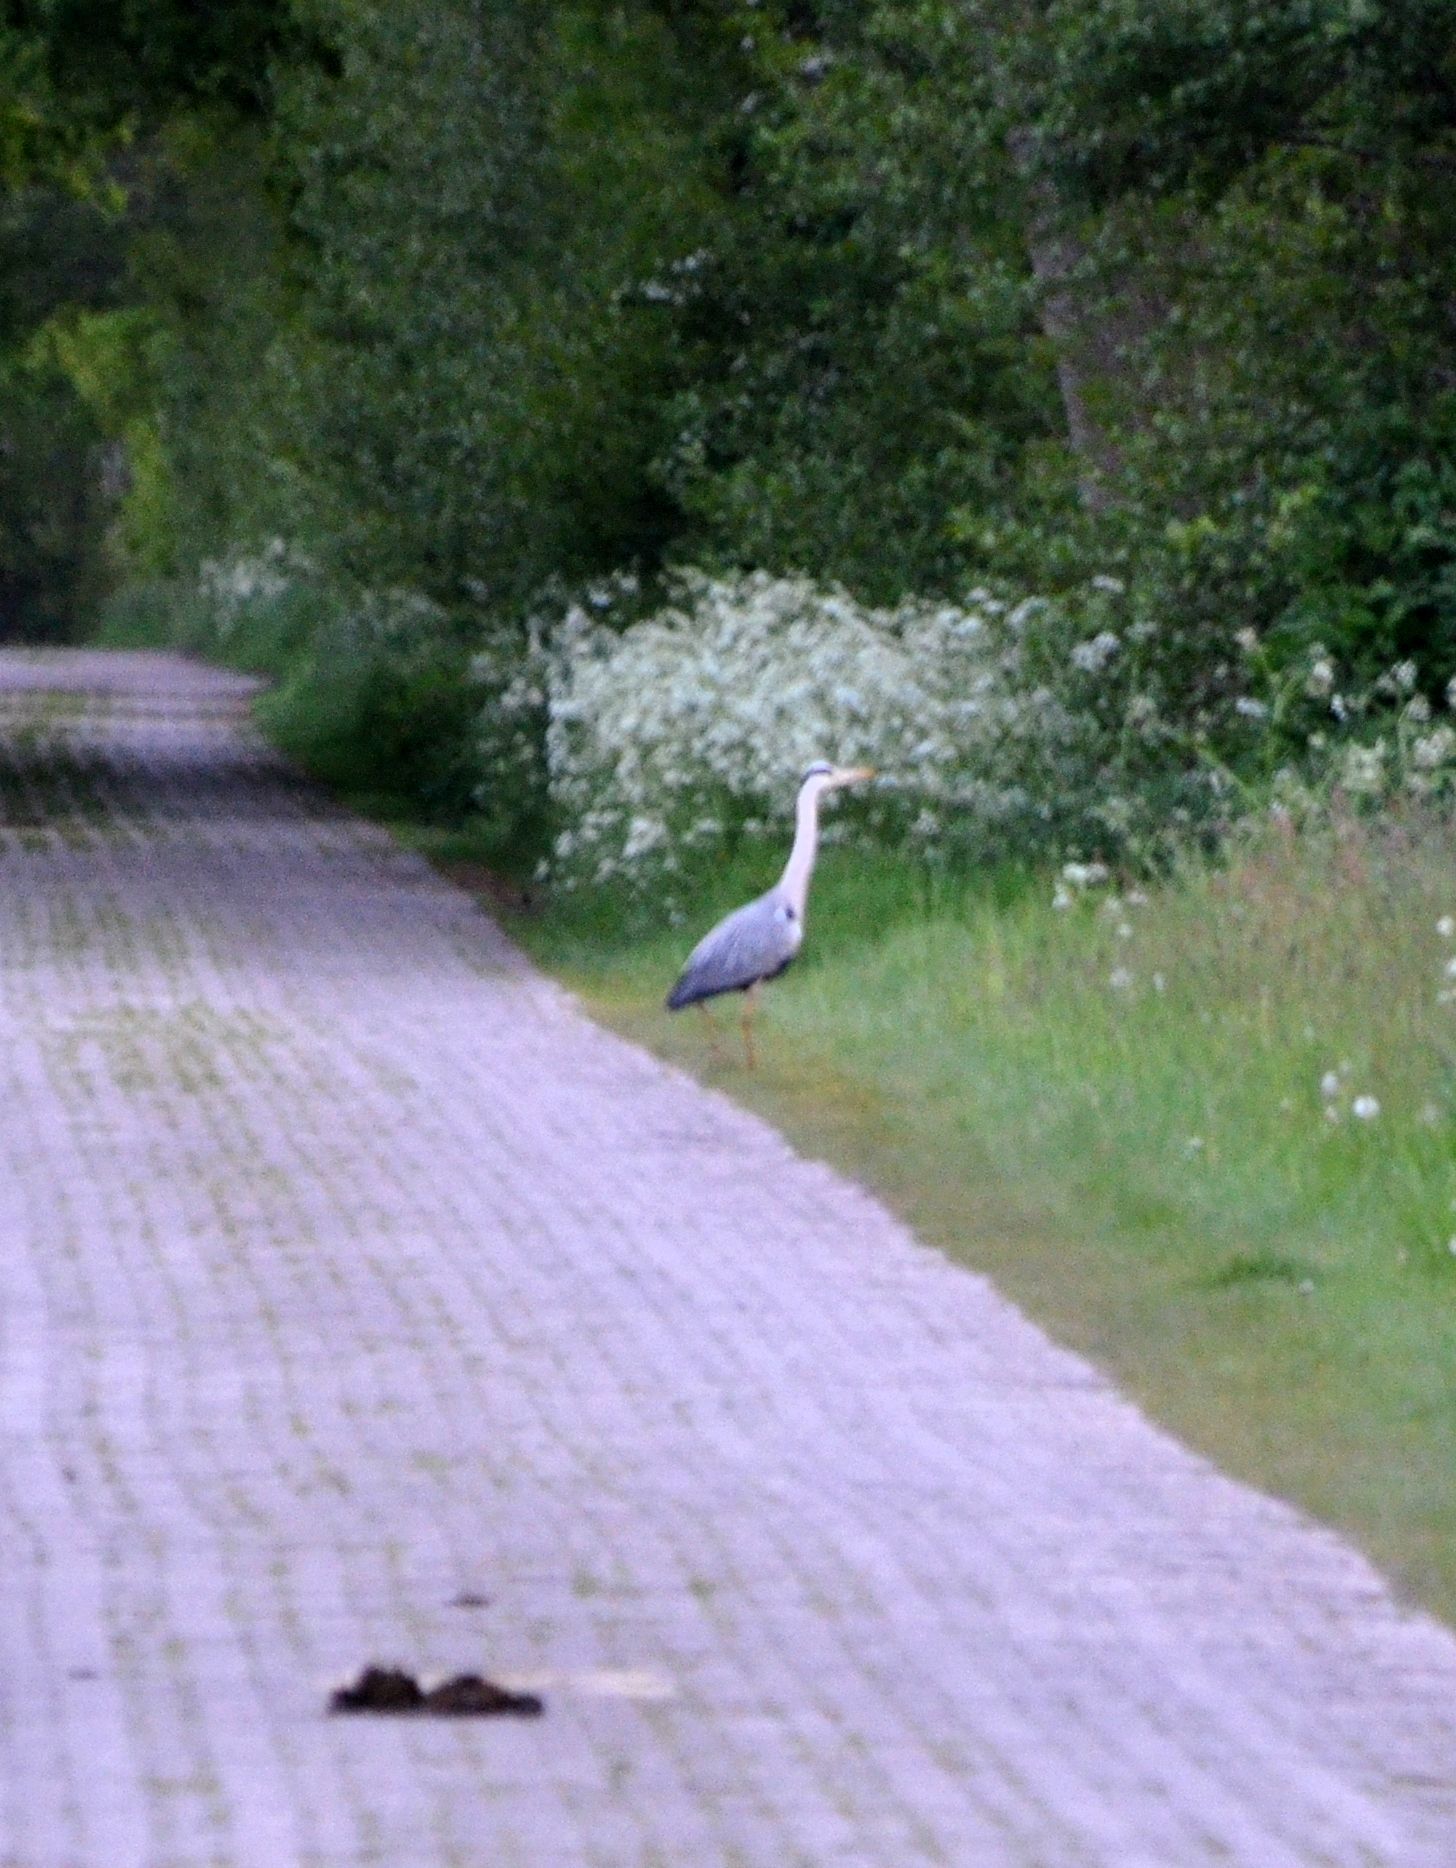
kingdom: Animalia
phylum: Chordata
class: Aves
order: Pelecaniformes
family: Ardeidae
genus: Ardea
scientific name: Ardea cinerea
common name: Grey heron
